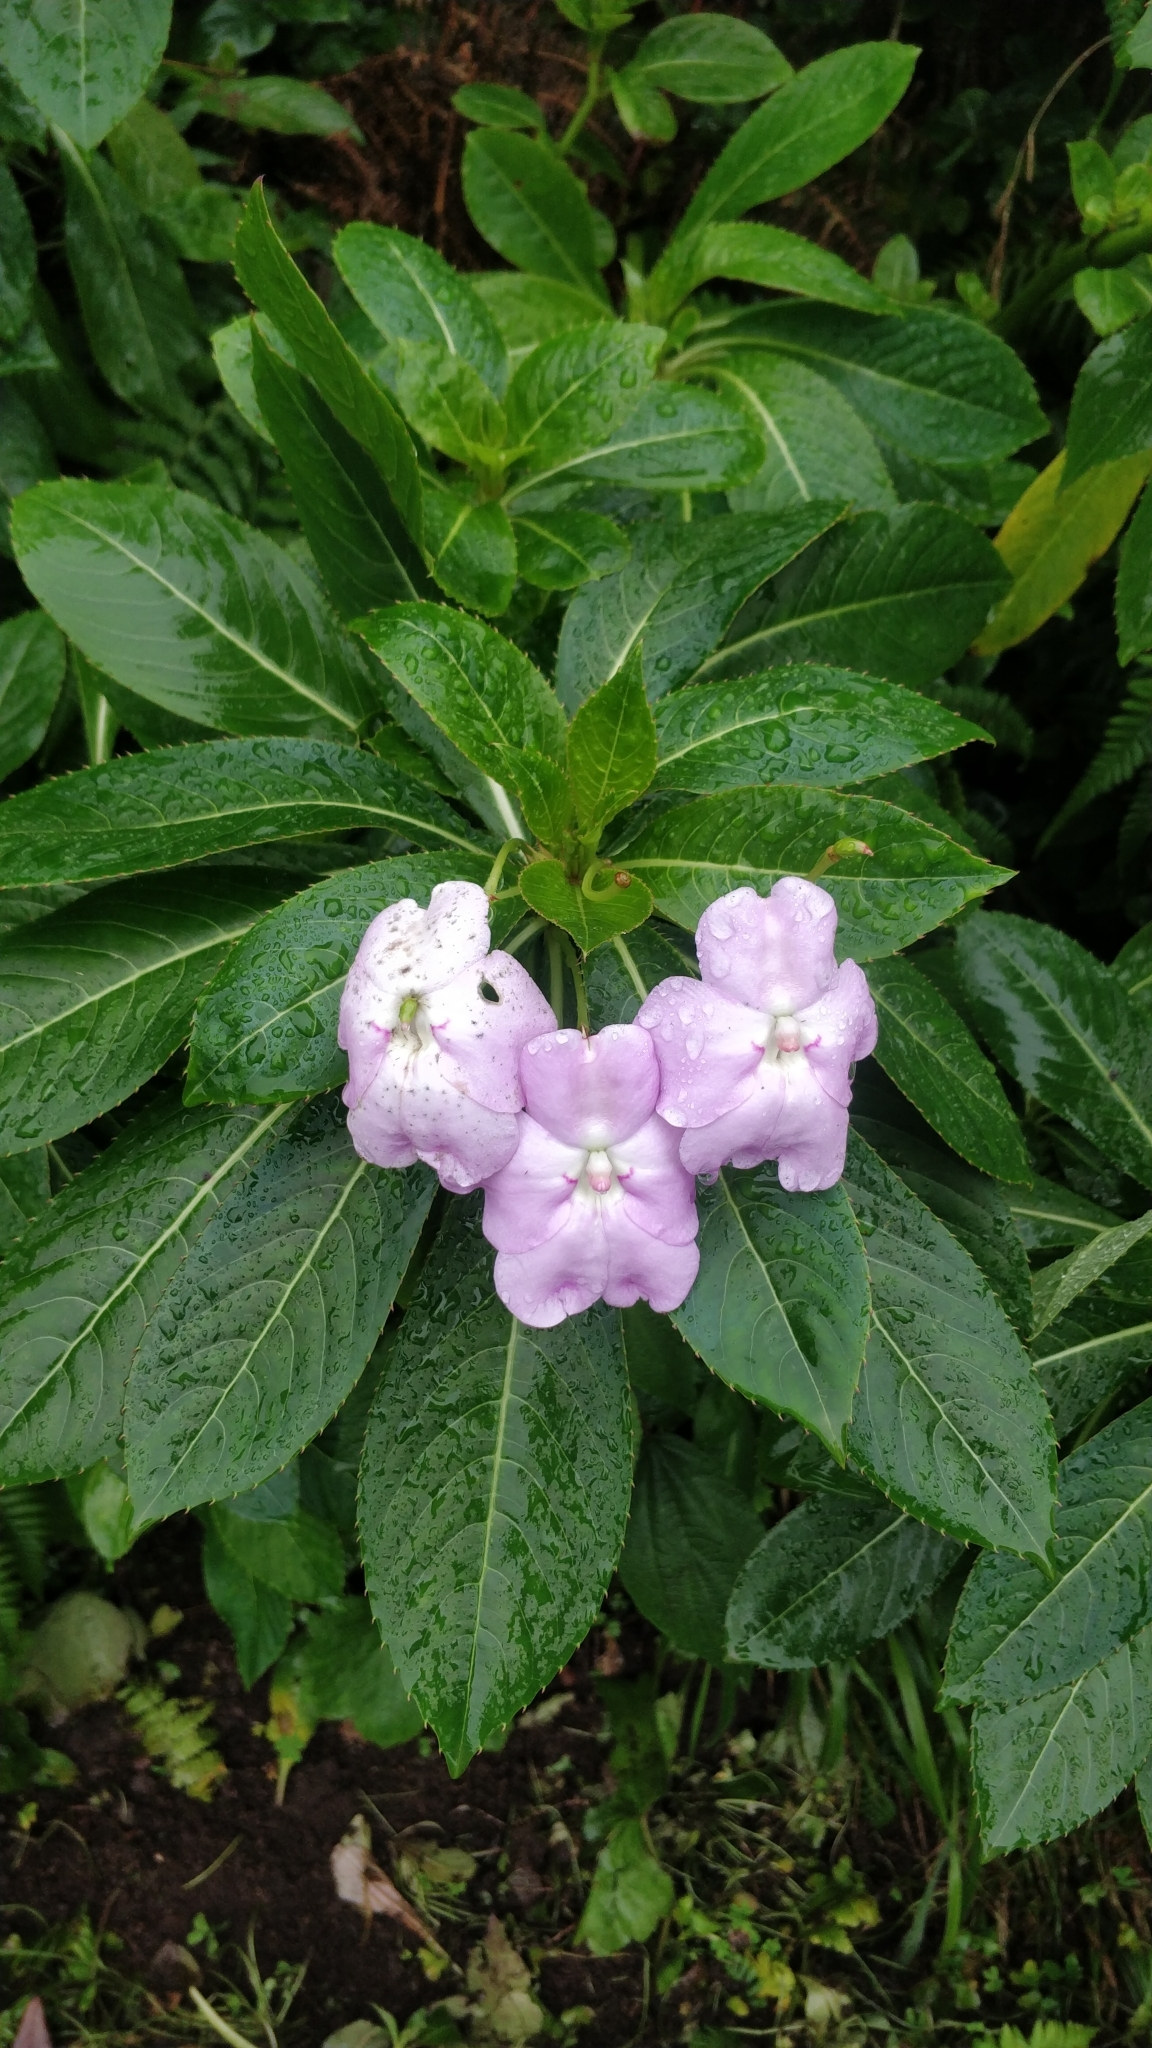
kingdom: Plantae
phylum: Tracheophyta
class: Magnoliopsida
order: Ericales
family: Balsaminaceae
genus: Impatiens
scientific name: Impatiens sodenii
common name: Oliver's touch-me-not
